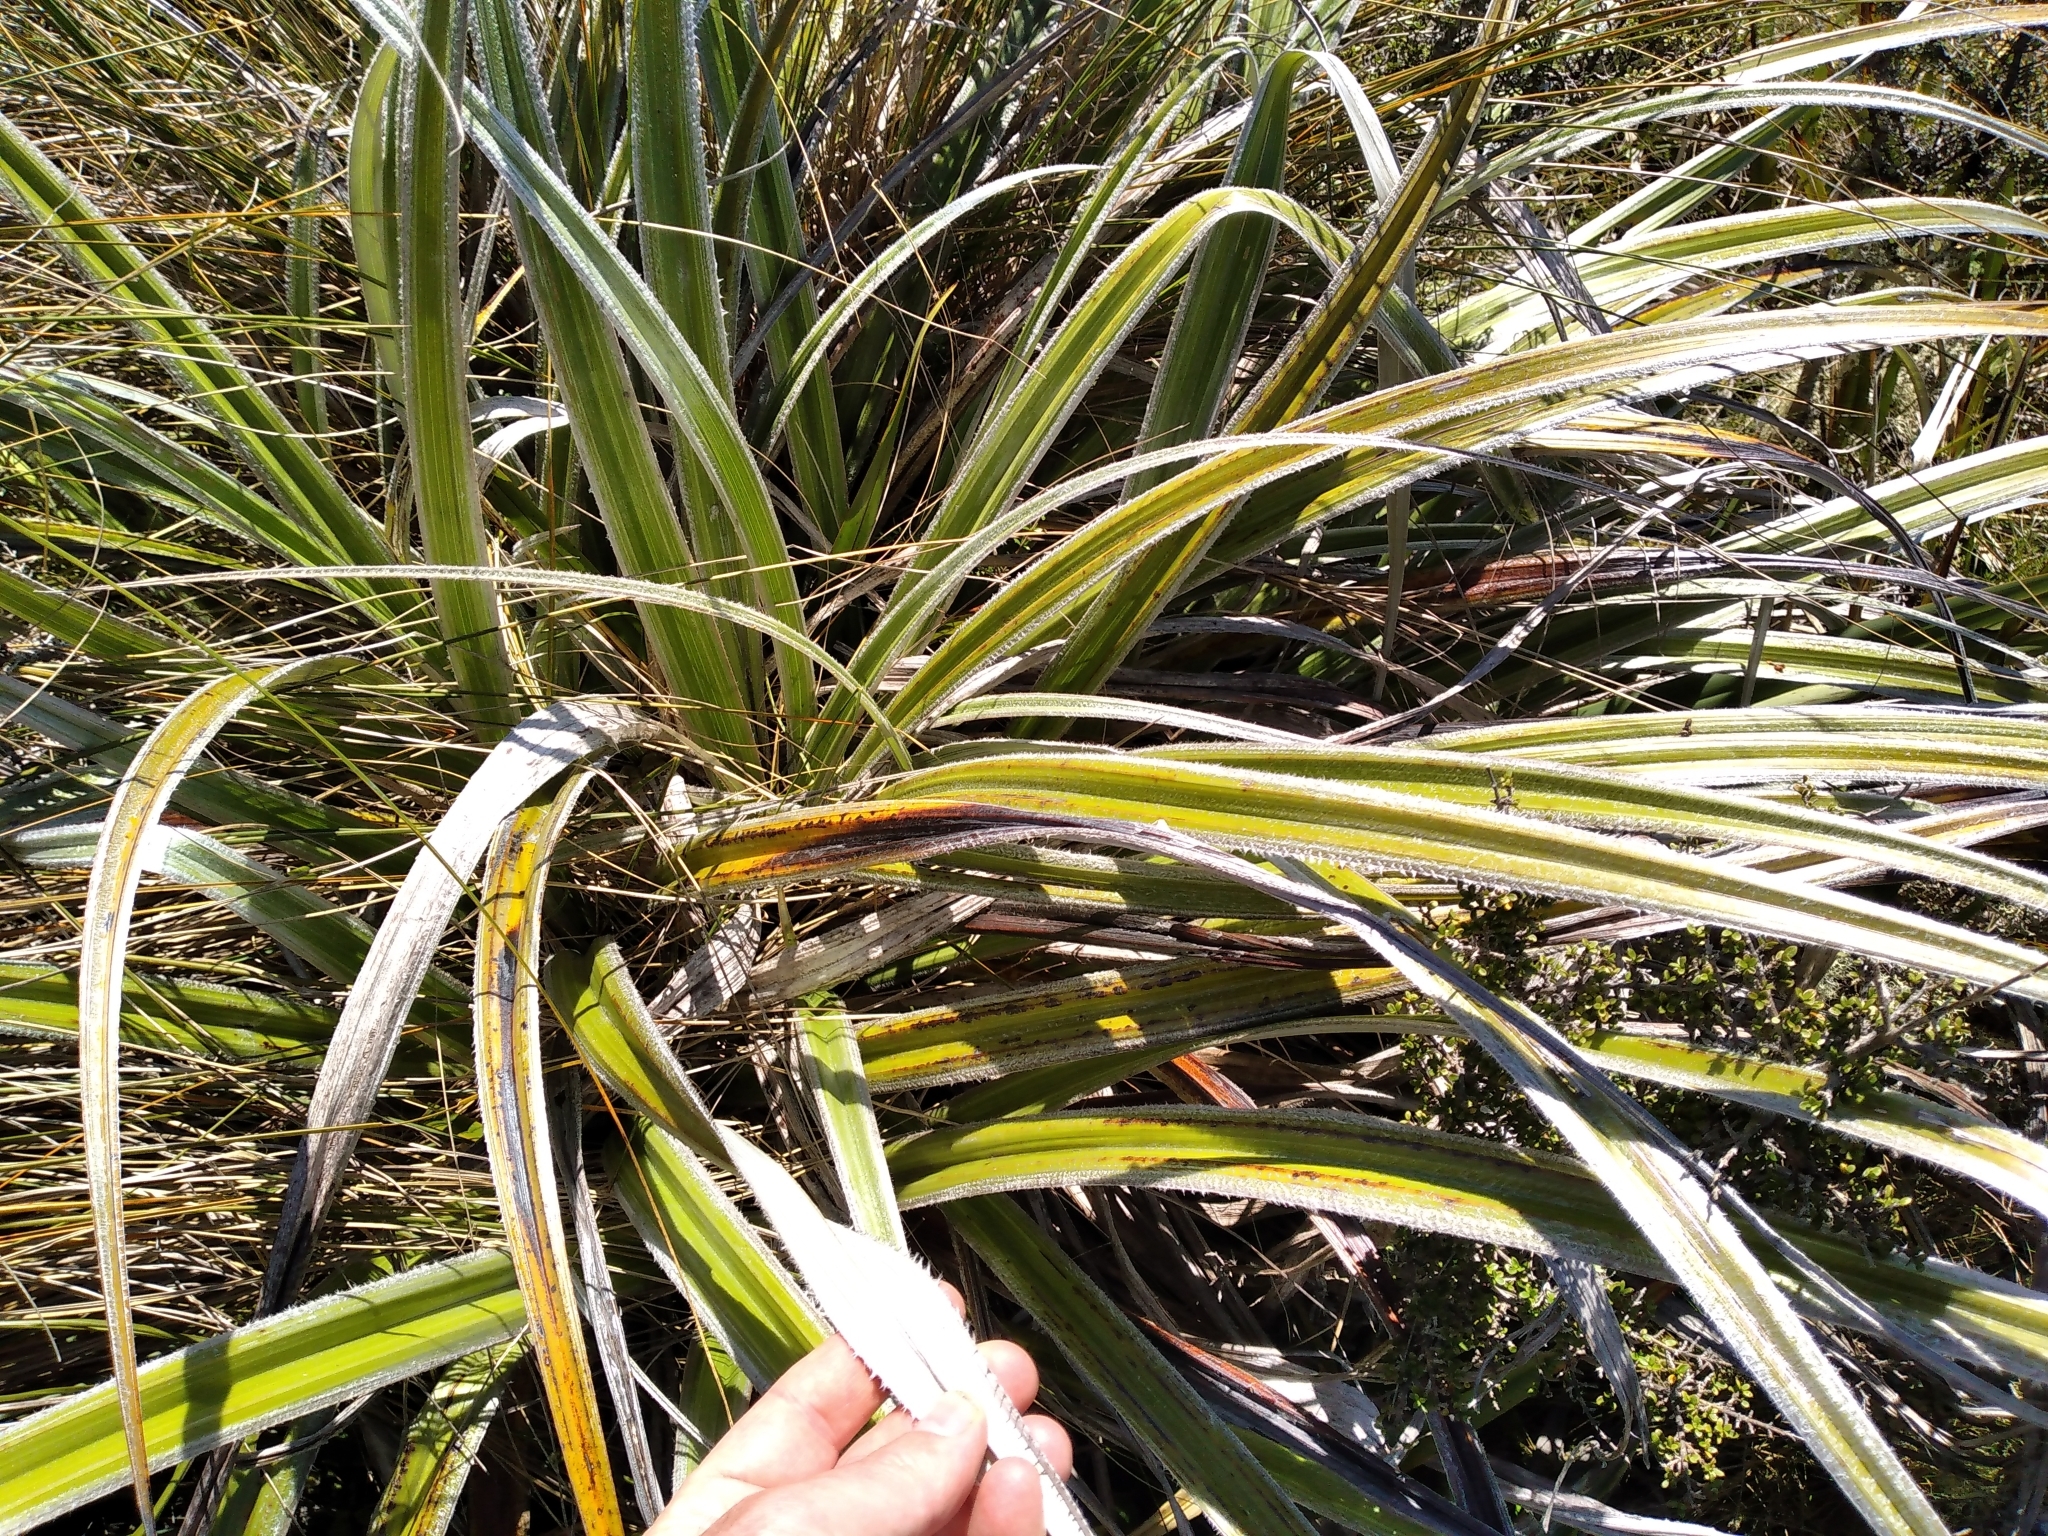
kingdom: Plantae
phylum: Tracheophyta
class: Liliopsida
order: Asparagales
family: Asteliaceae
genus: Astelia
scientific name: Astelia nervosa
